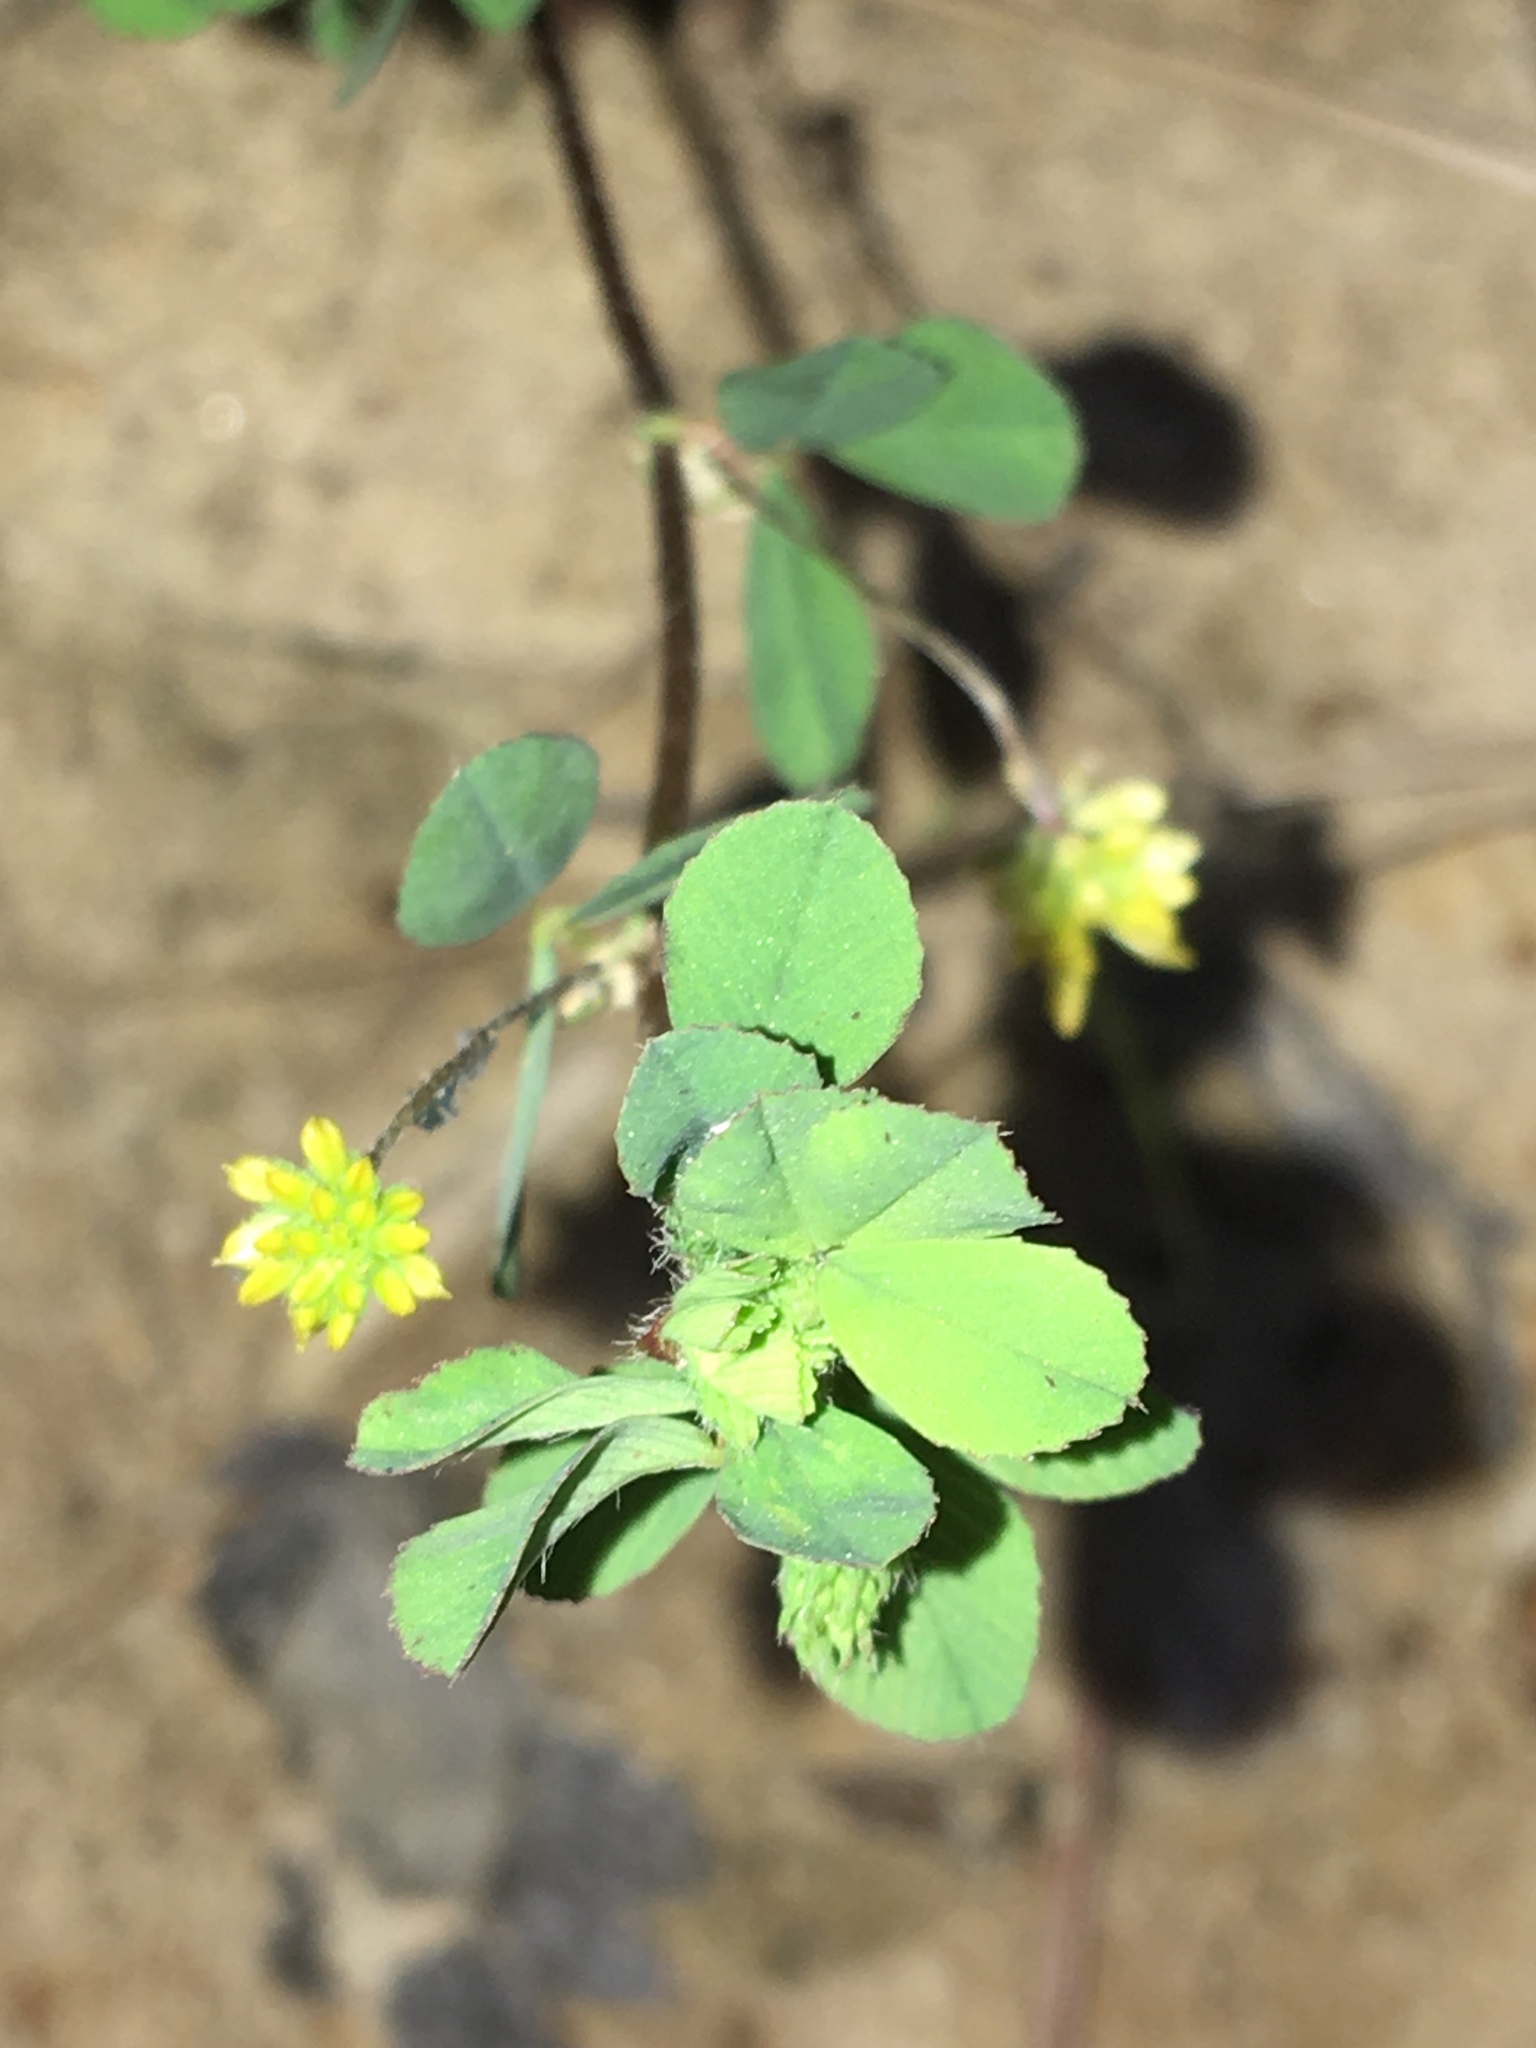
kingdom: Plantae
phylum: Tracheophyta
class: Magnoliopsida
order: Fabales
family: Fabaceae
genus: Trifolium
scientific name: Trifolium dubium
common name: Suckling clover
